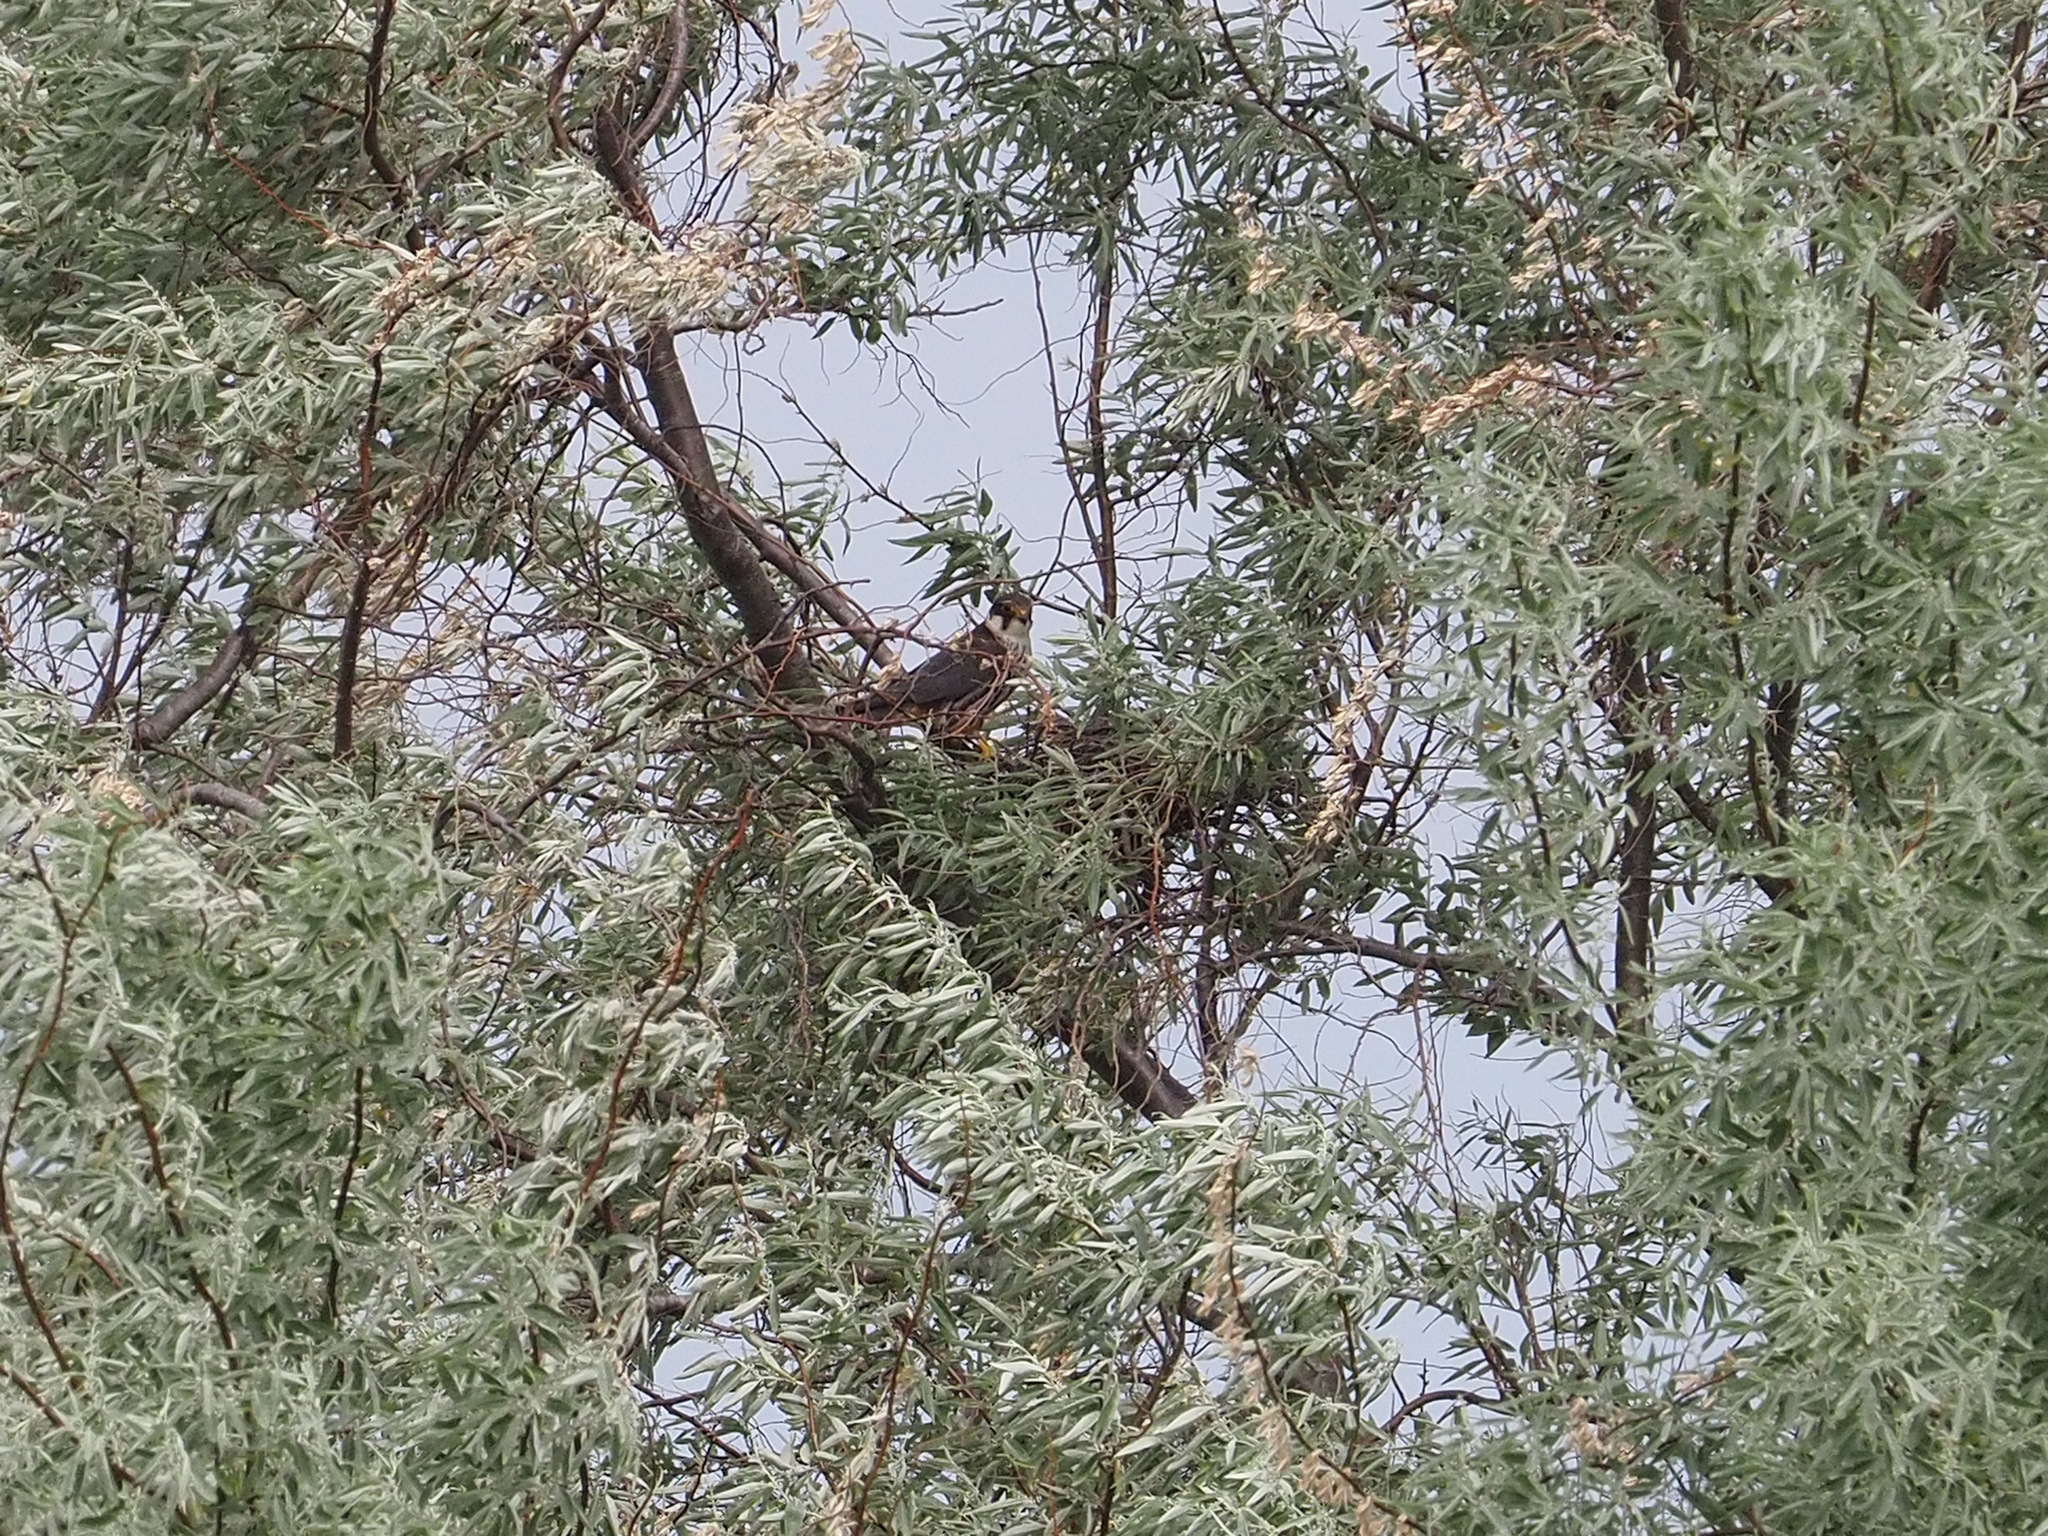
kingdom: Animalia
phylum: Chordata
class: Aves
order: Falconiformes
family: Falconidae
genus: Falco
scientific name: Falco subbuteo
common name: Eurasian hobby
